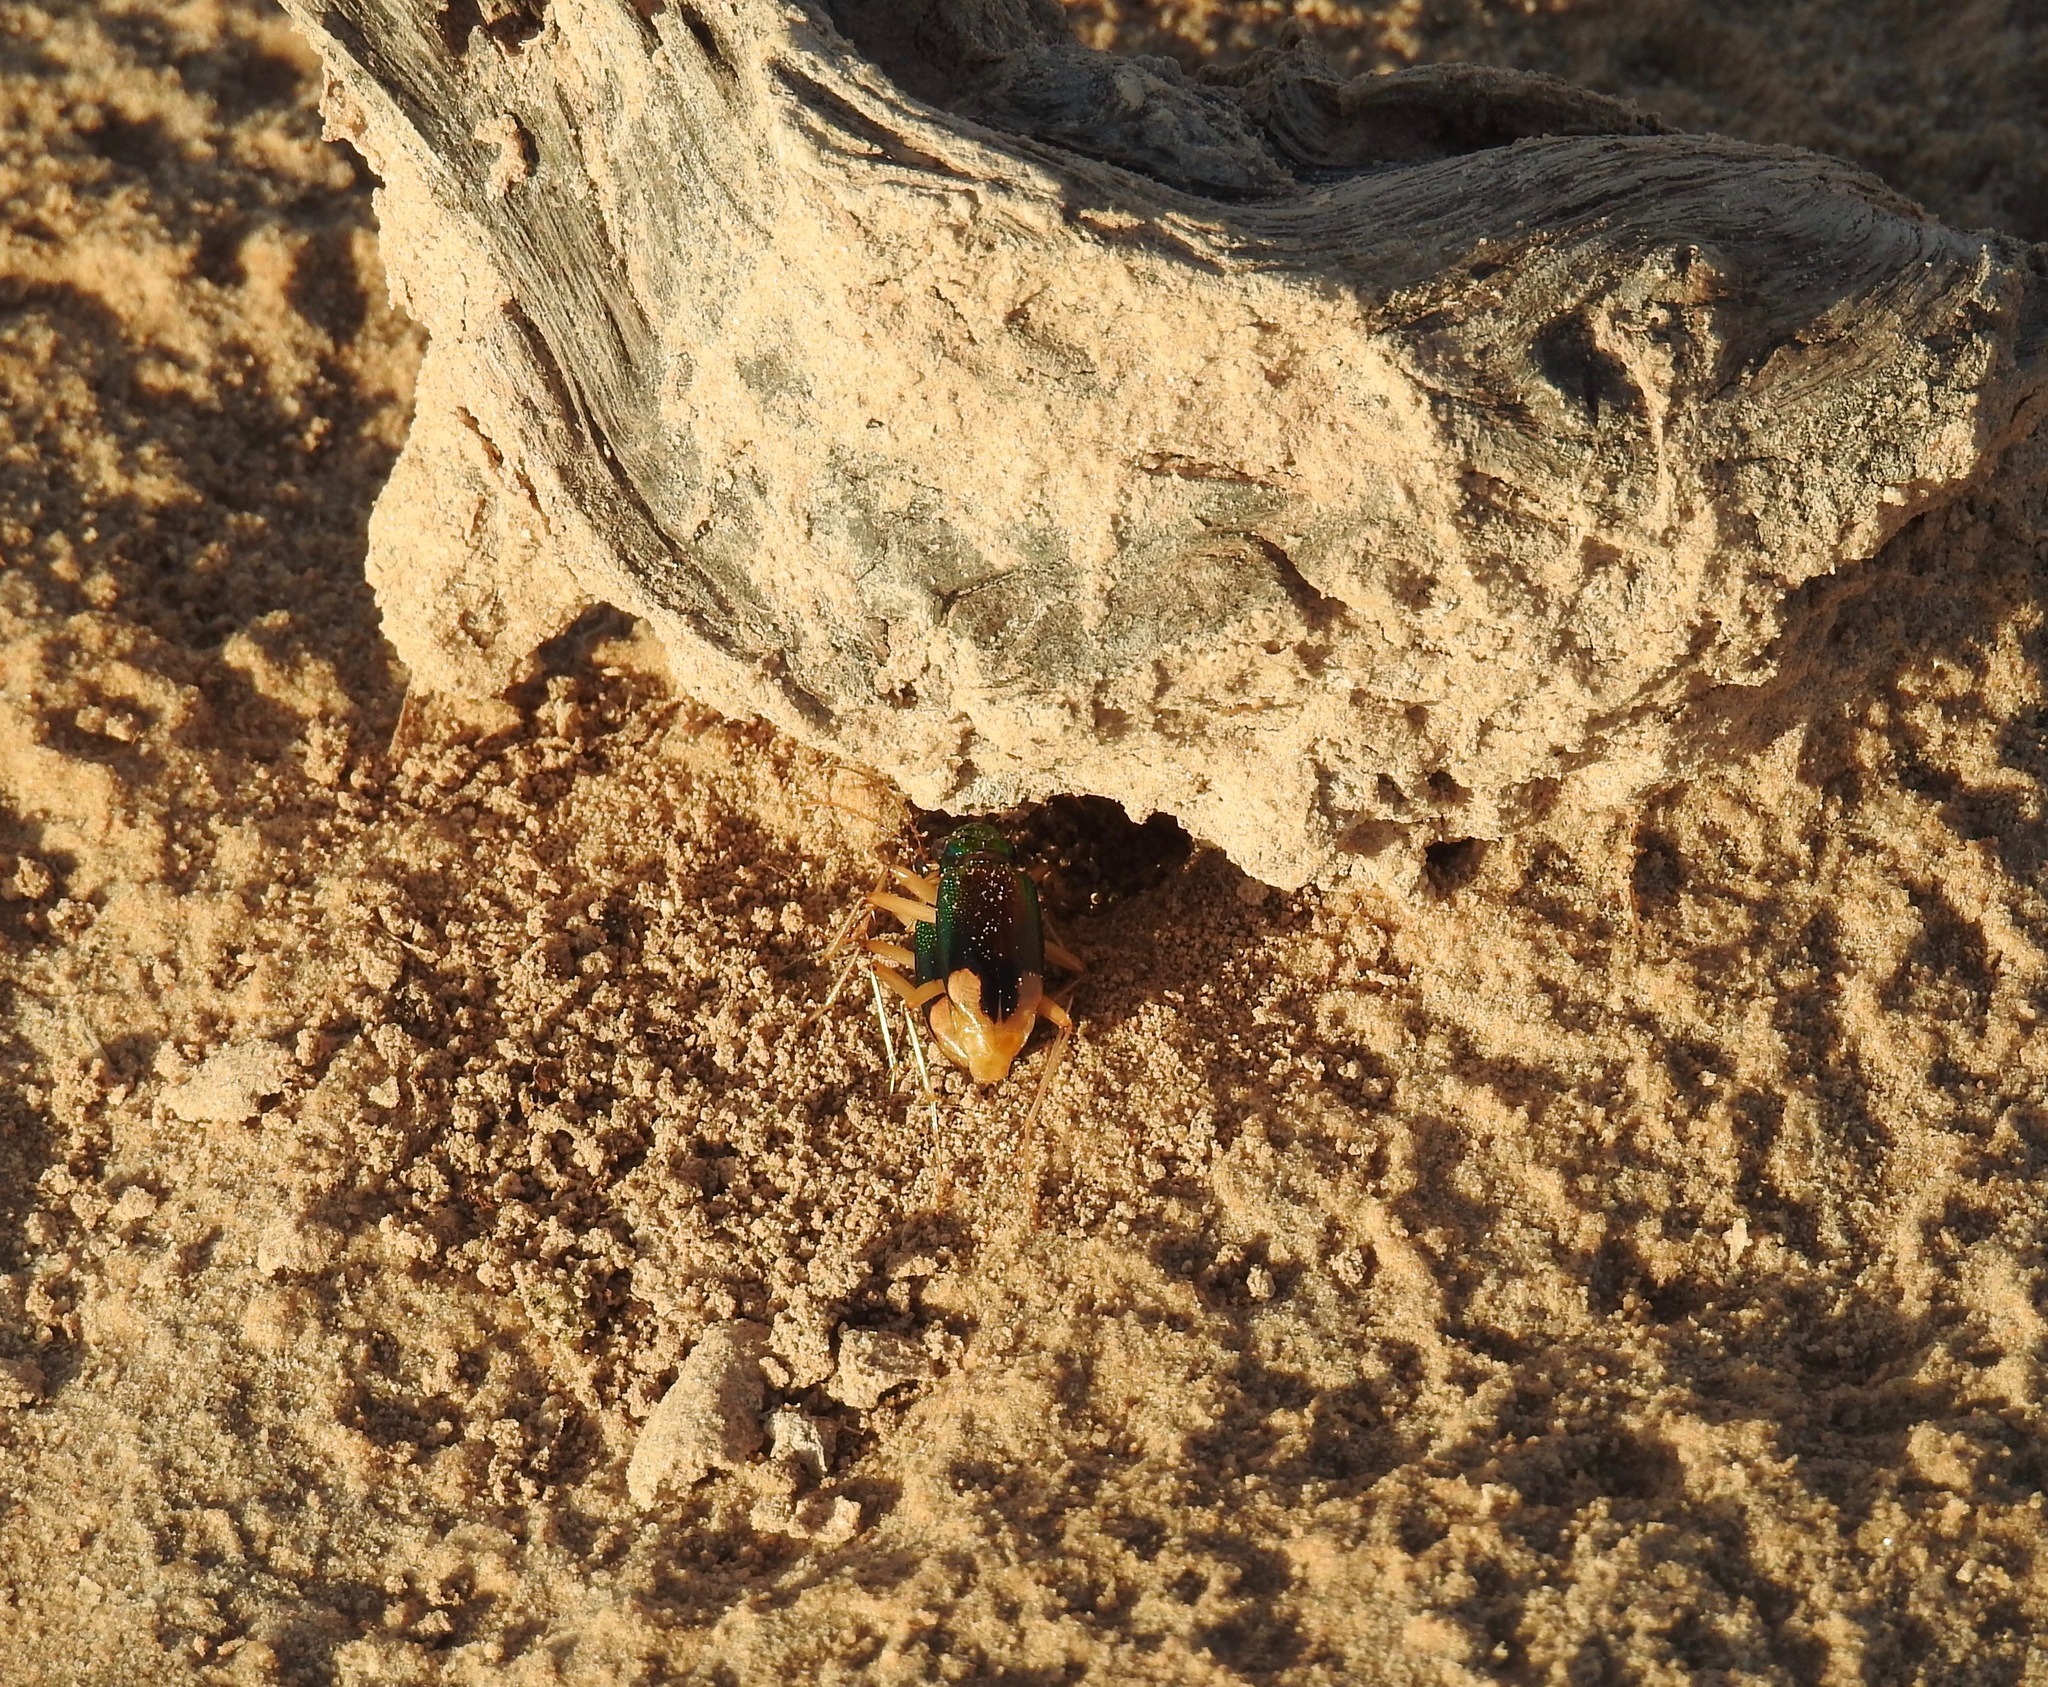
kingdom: Animalia
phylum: Arthropoda
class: Insecta
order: Coleoptera
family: Carabidae
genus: Tetracha
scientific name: Tetracha carolina
